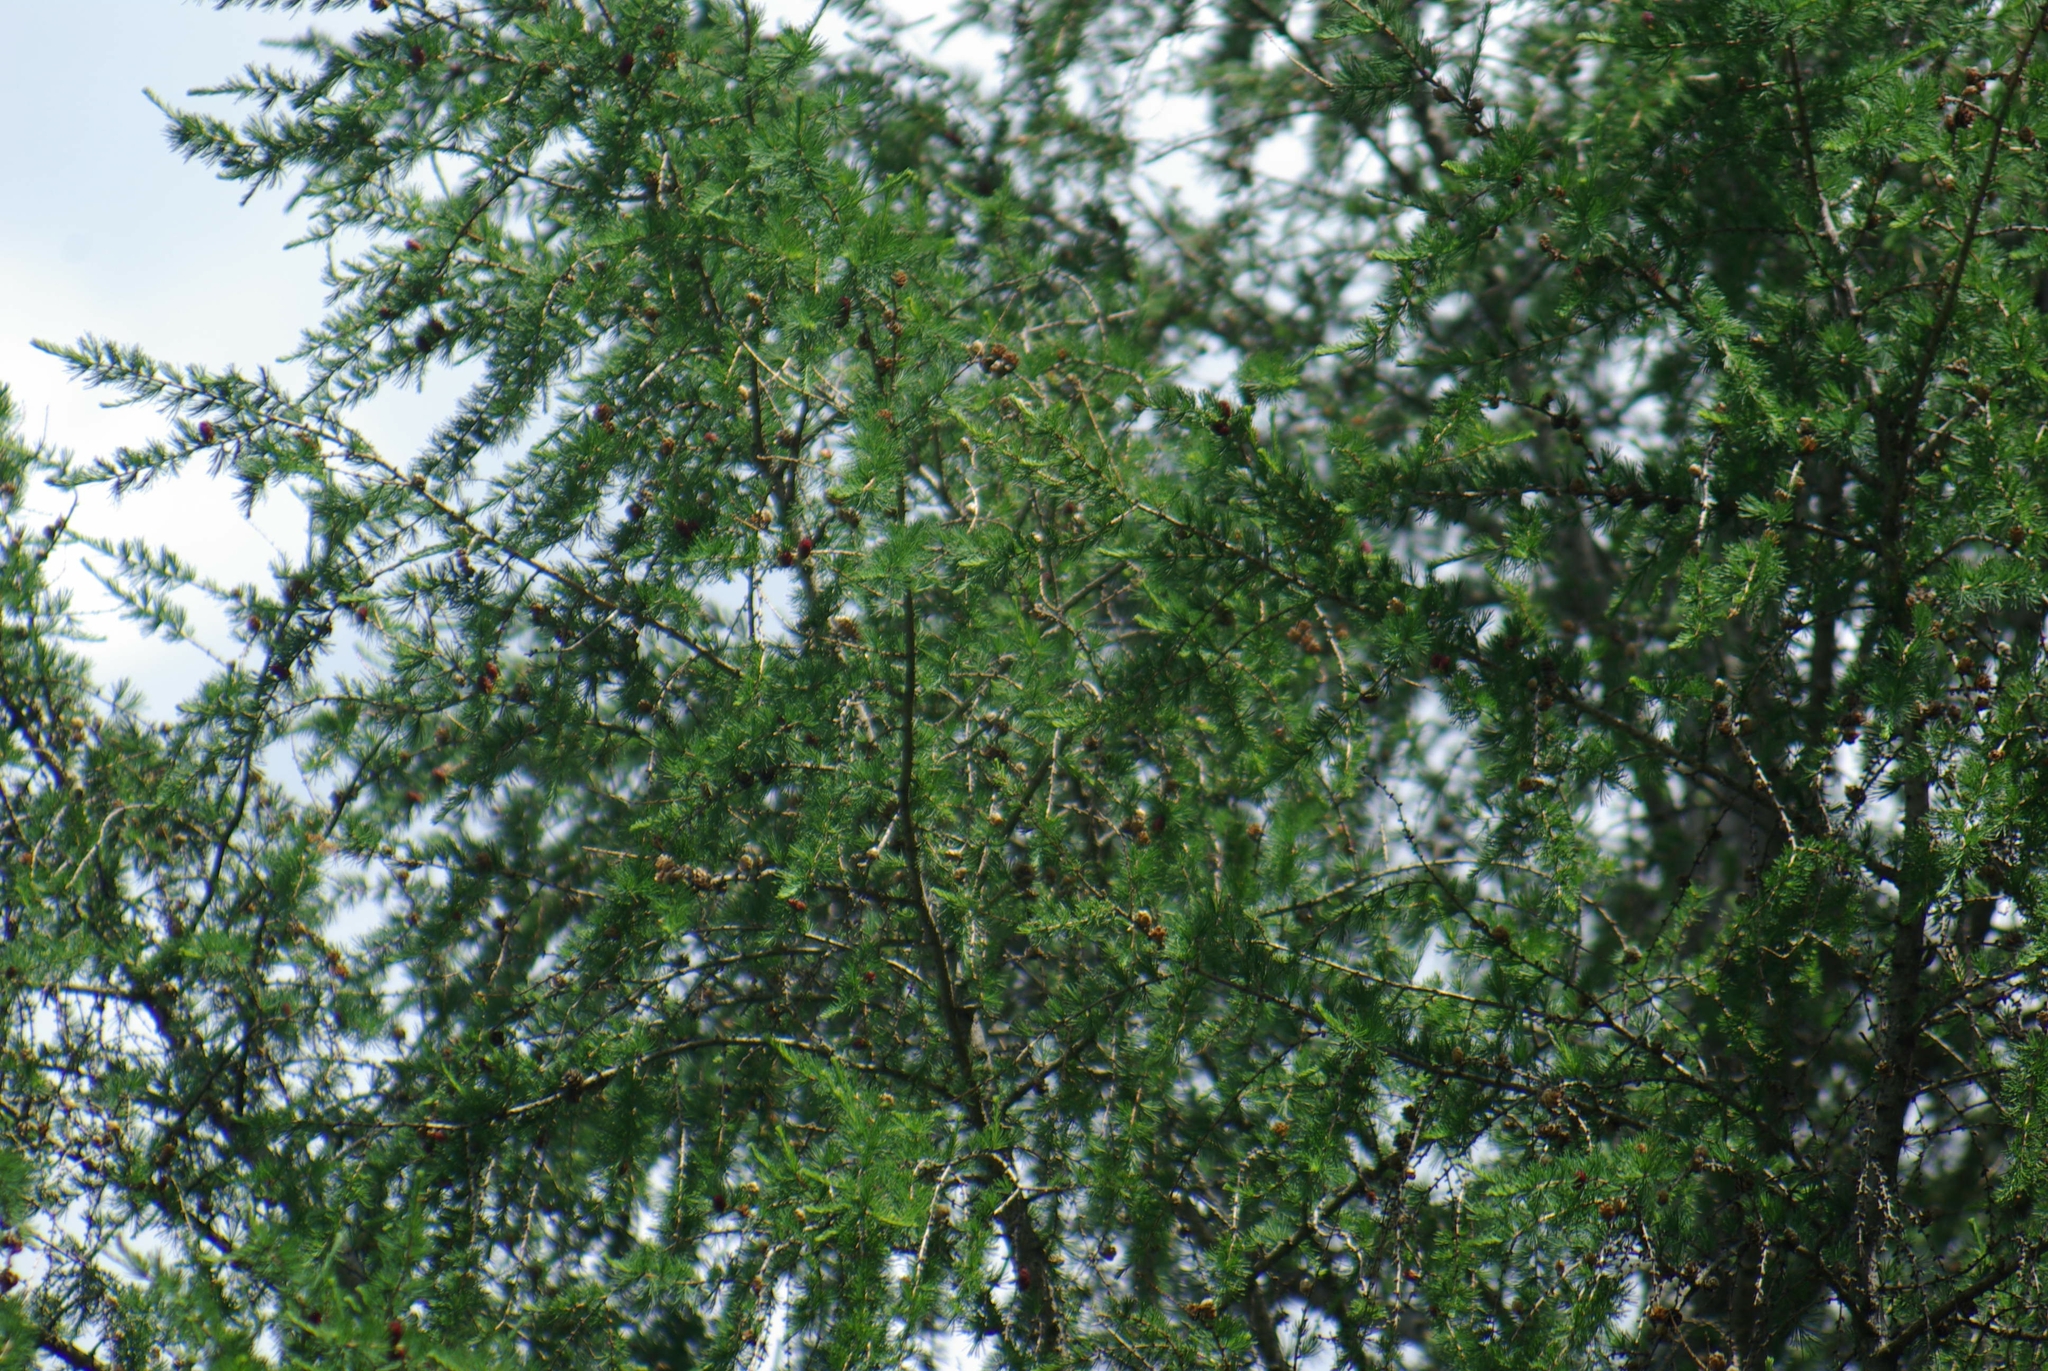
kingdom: Plantae
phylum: Tracheophyta
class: Pinopsida
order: Pinales
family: Pinaceae
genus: Larix
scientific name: Larix laricina
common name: American larch
